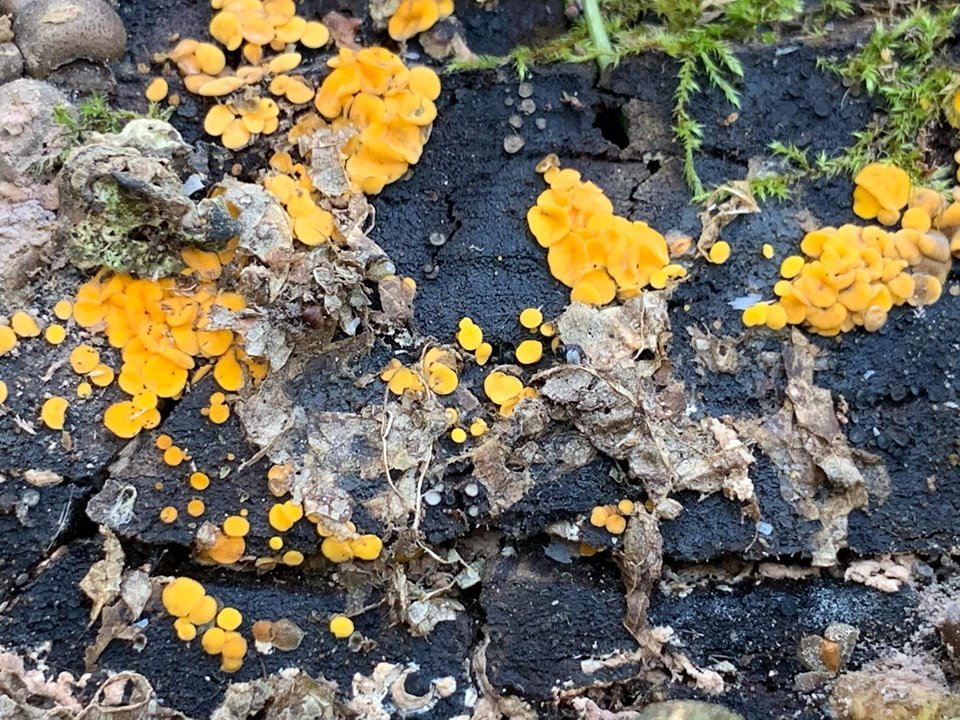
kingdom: Fungi
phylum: Ascomycota
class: Leotiomycetes
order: Helotiales
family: Pezizellaceae
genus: Calycina
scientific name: Calycina citrina
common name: Yellow fairy cups
